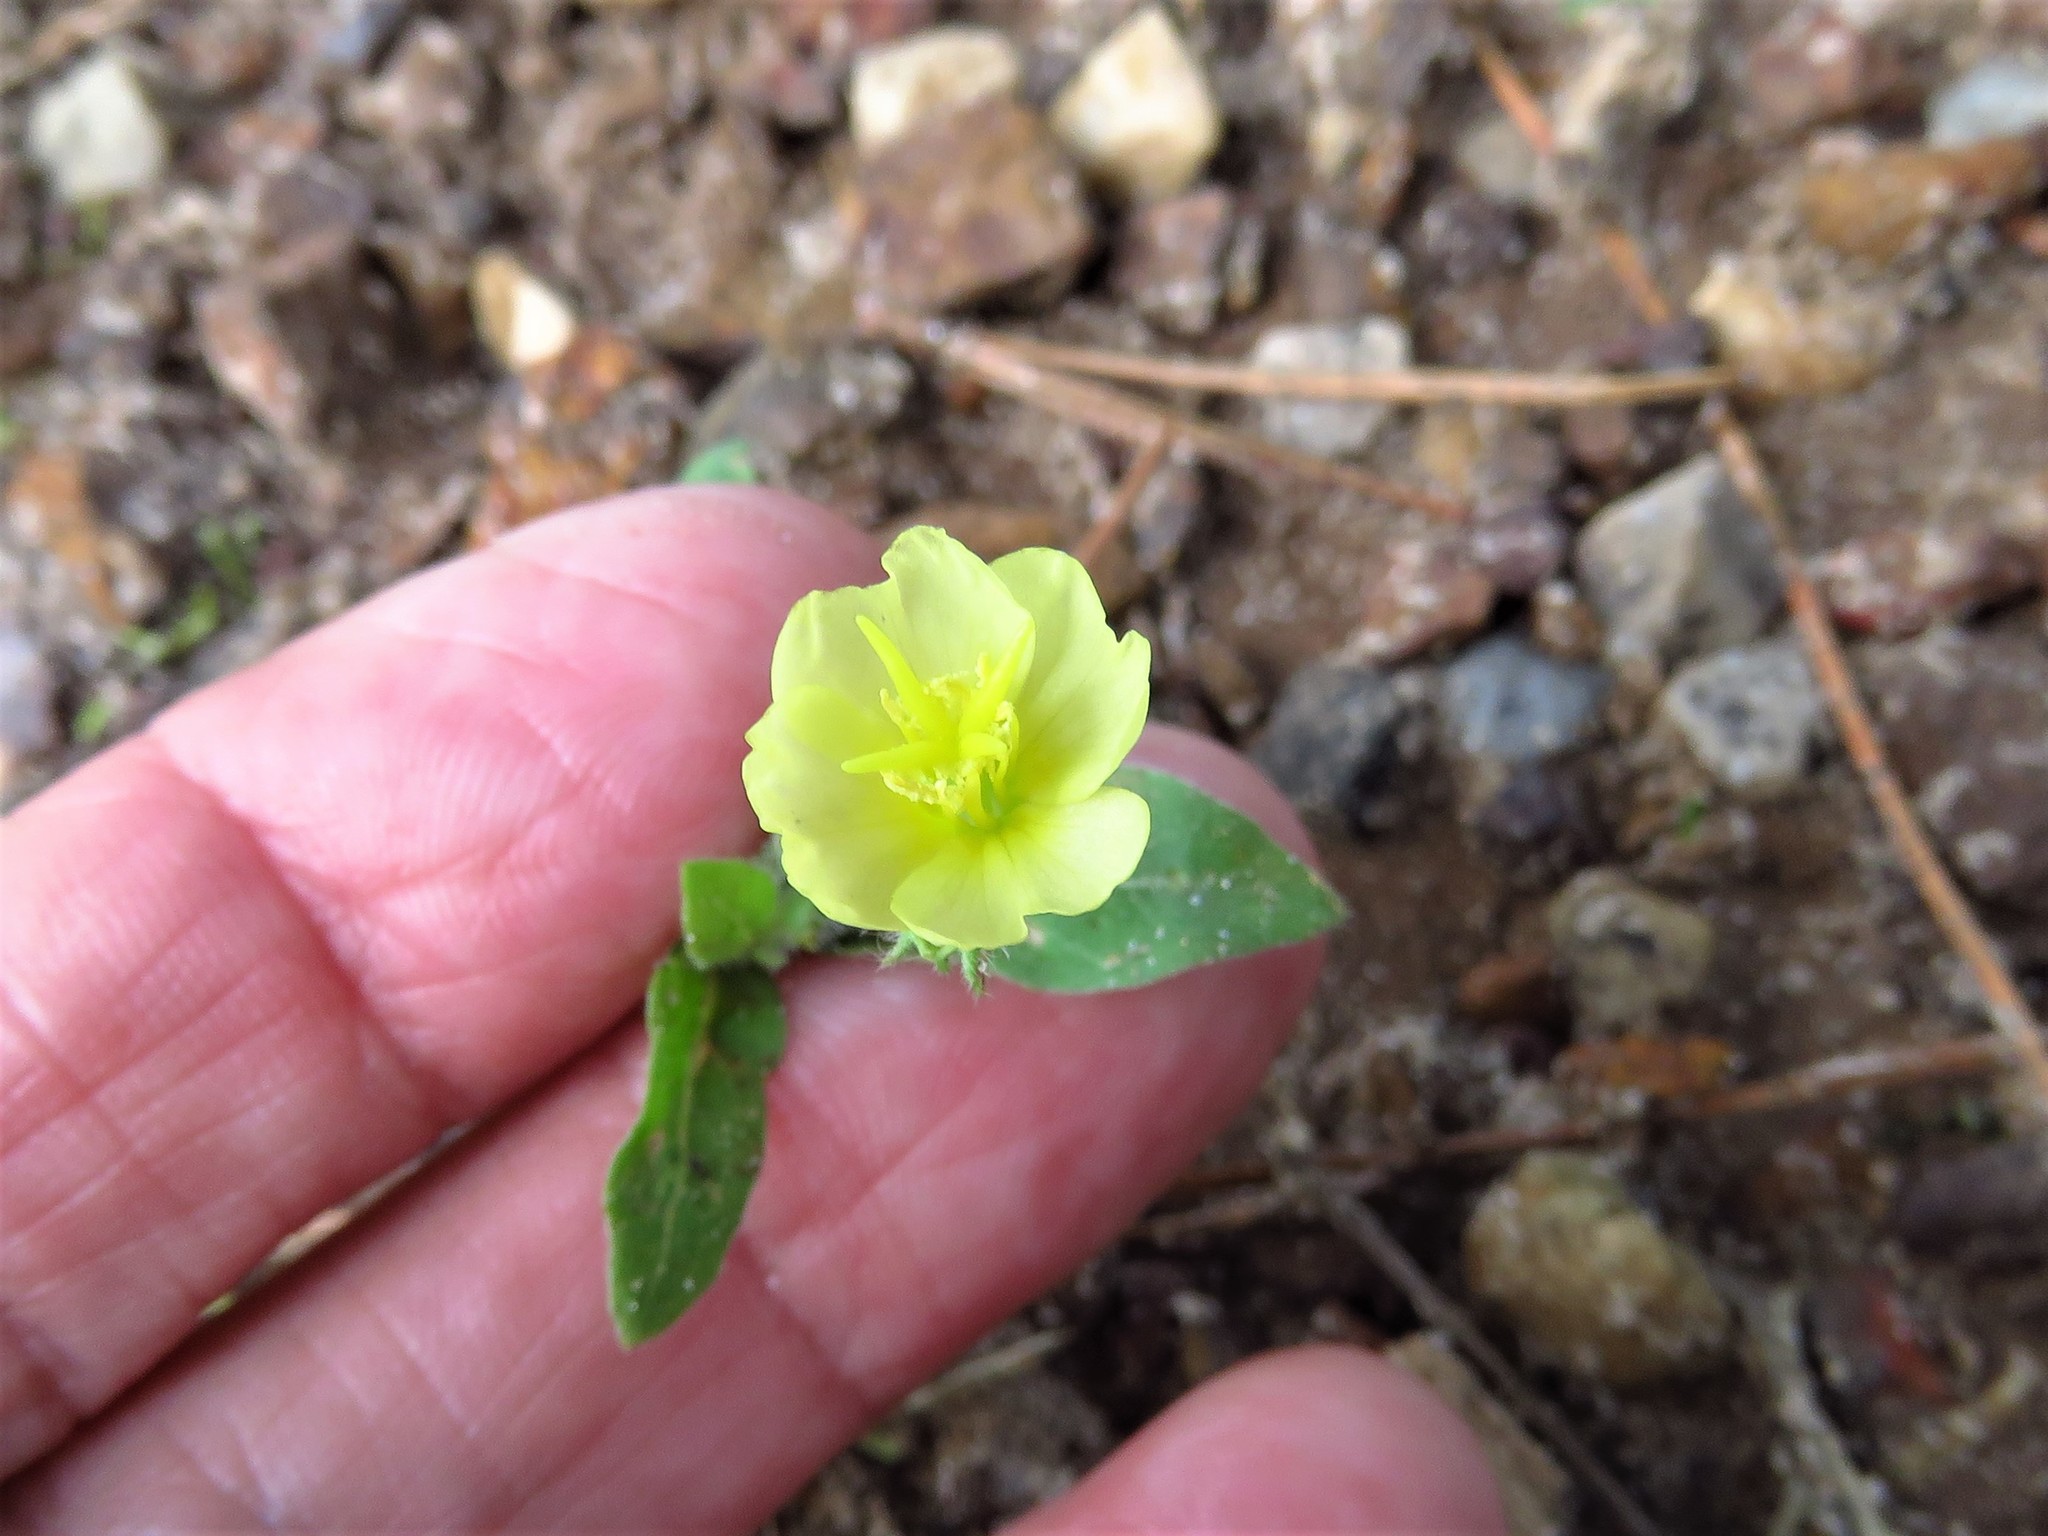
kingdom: Plantae
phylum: Tracheophyta
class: Magnoliopsida
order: Myrtales
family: Onagraceae
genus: Oenothera
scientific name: Oenothera laciniata
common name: Cut-leaved evening-primrose
